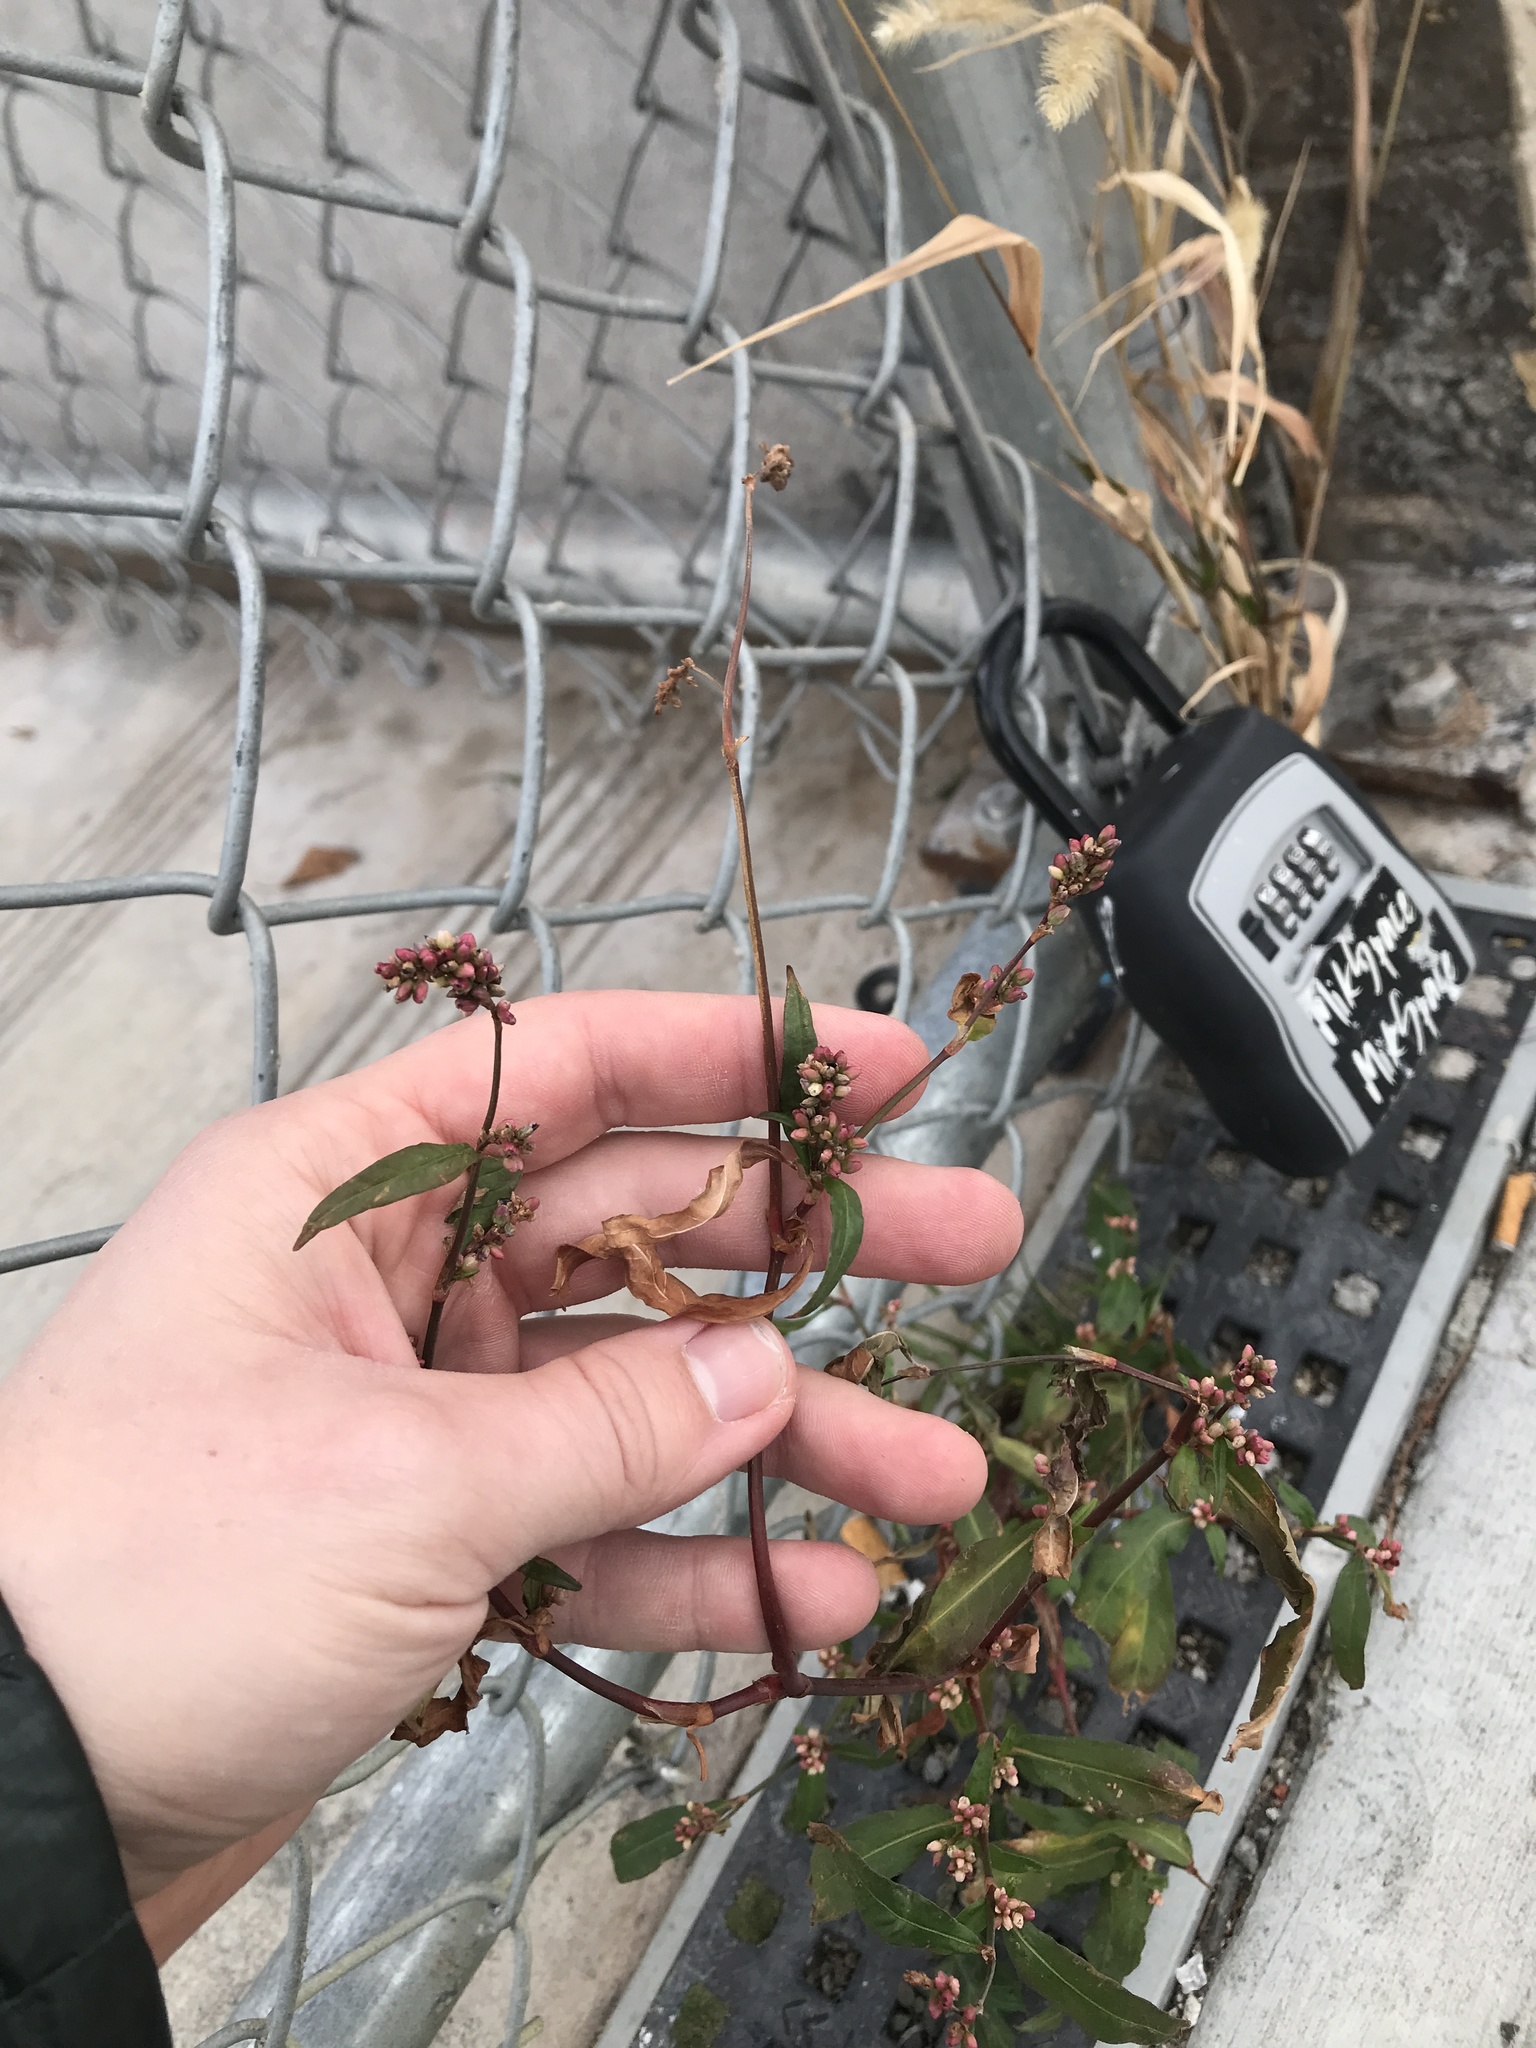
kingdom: Plantae
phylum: Tracheophyta
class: Magnoliopsida
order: Caryophyllales
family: Polygonaceae
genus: Persicaria
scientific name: Persicaria maculosa
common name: Redshank
